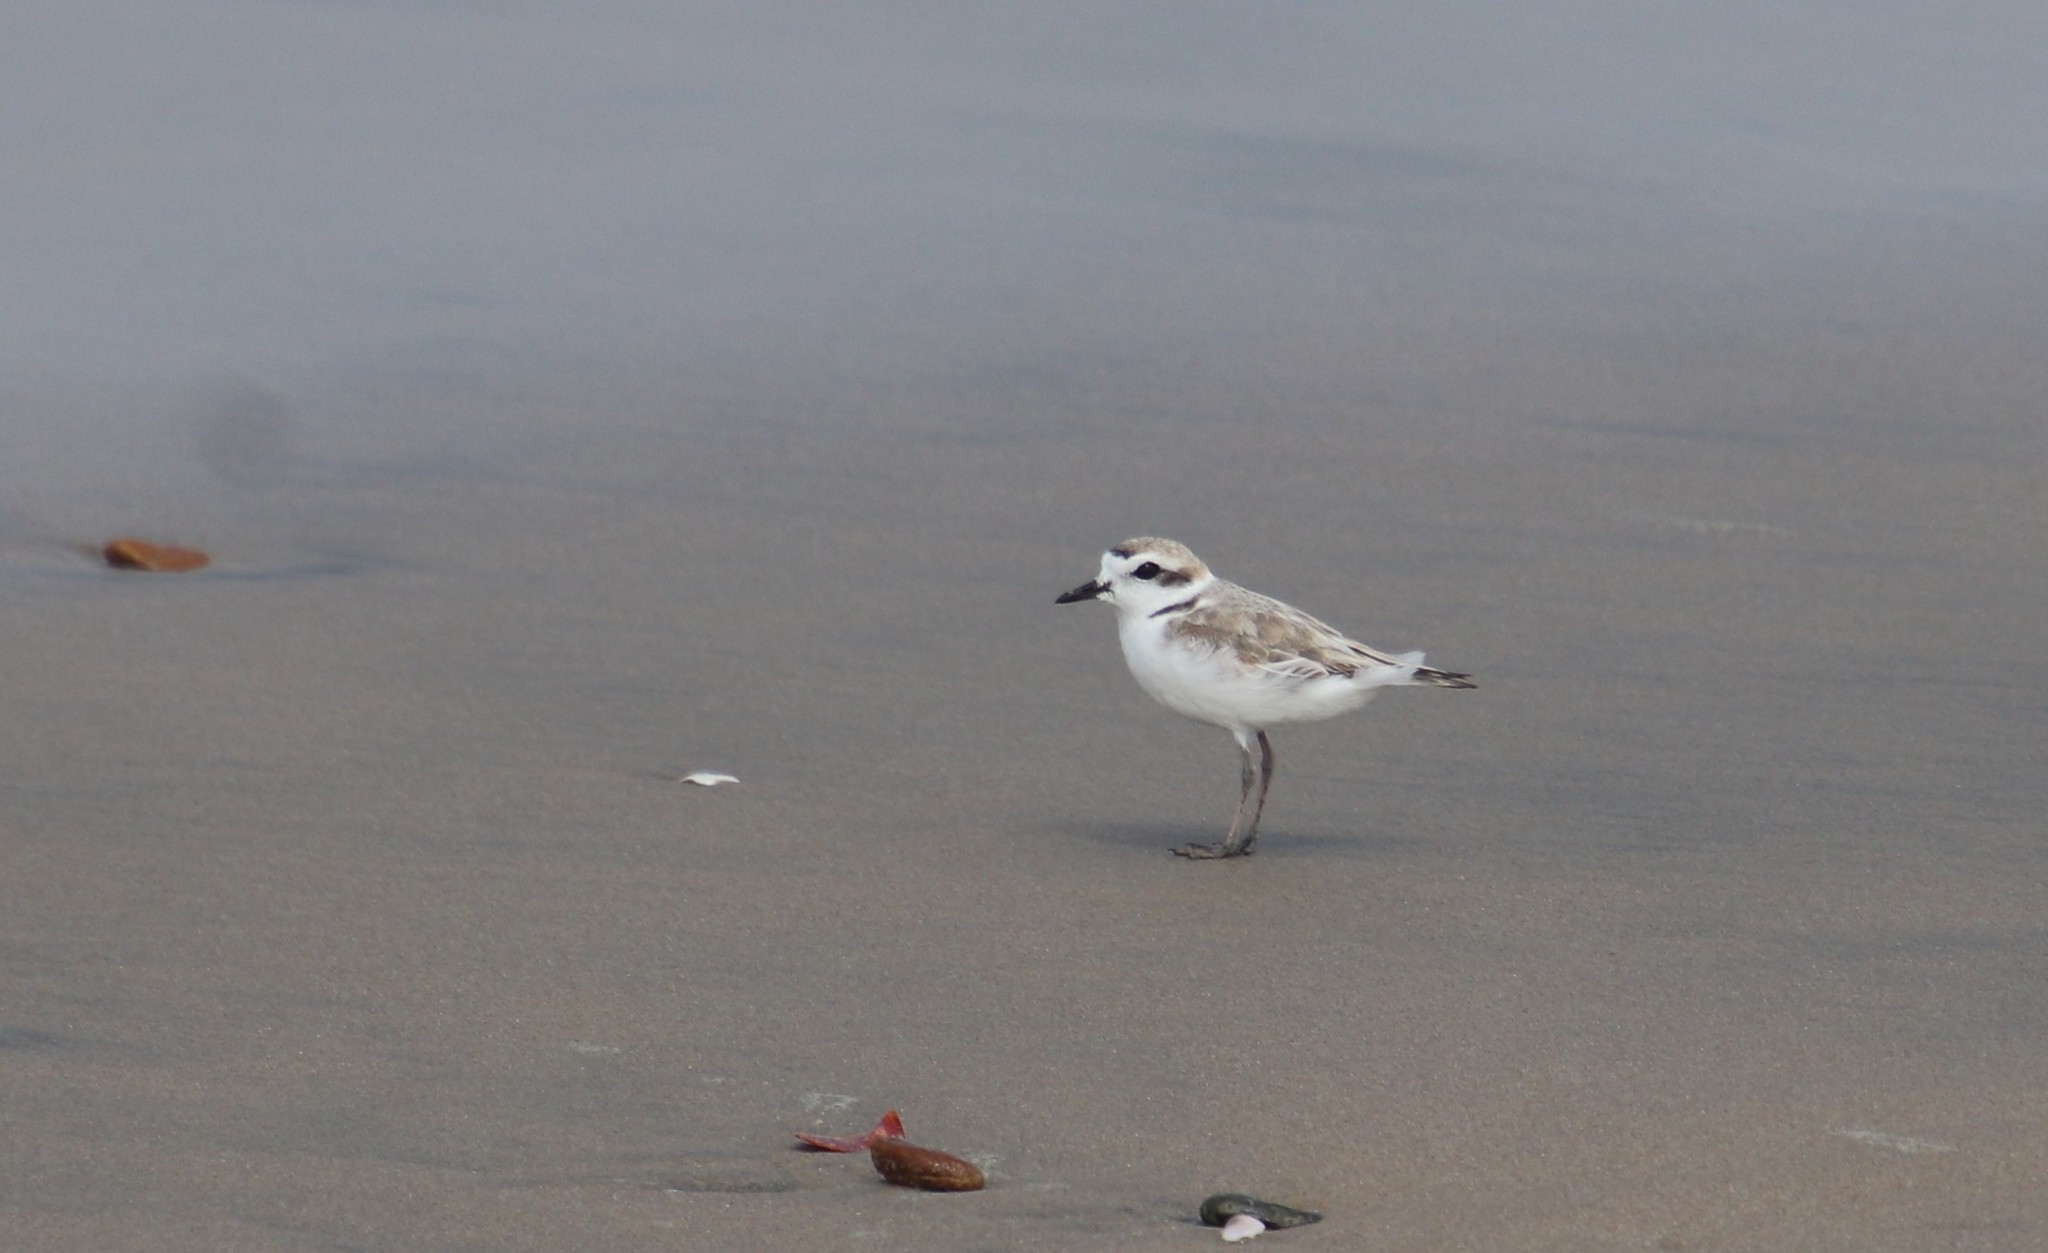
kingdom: Animalia
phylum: Chordata
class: Aves
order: Charadriiformes
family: Charadriidae
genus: Anarhynchus
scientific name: Anarhynchus
